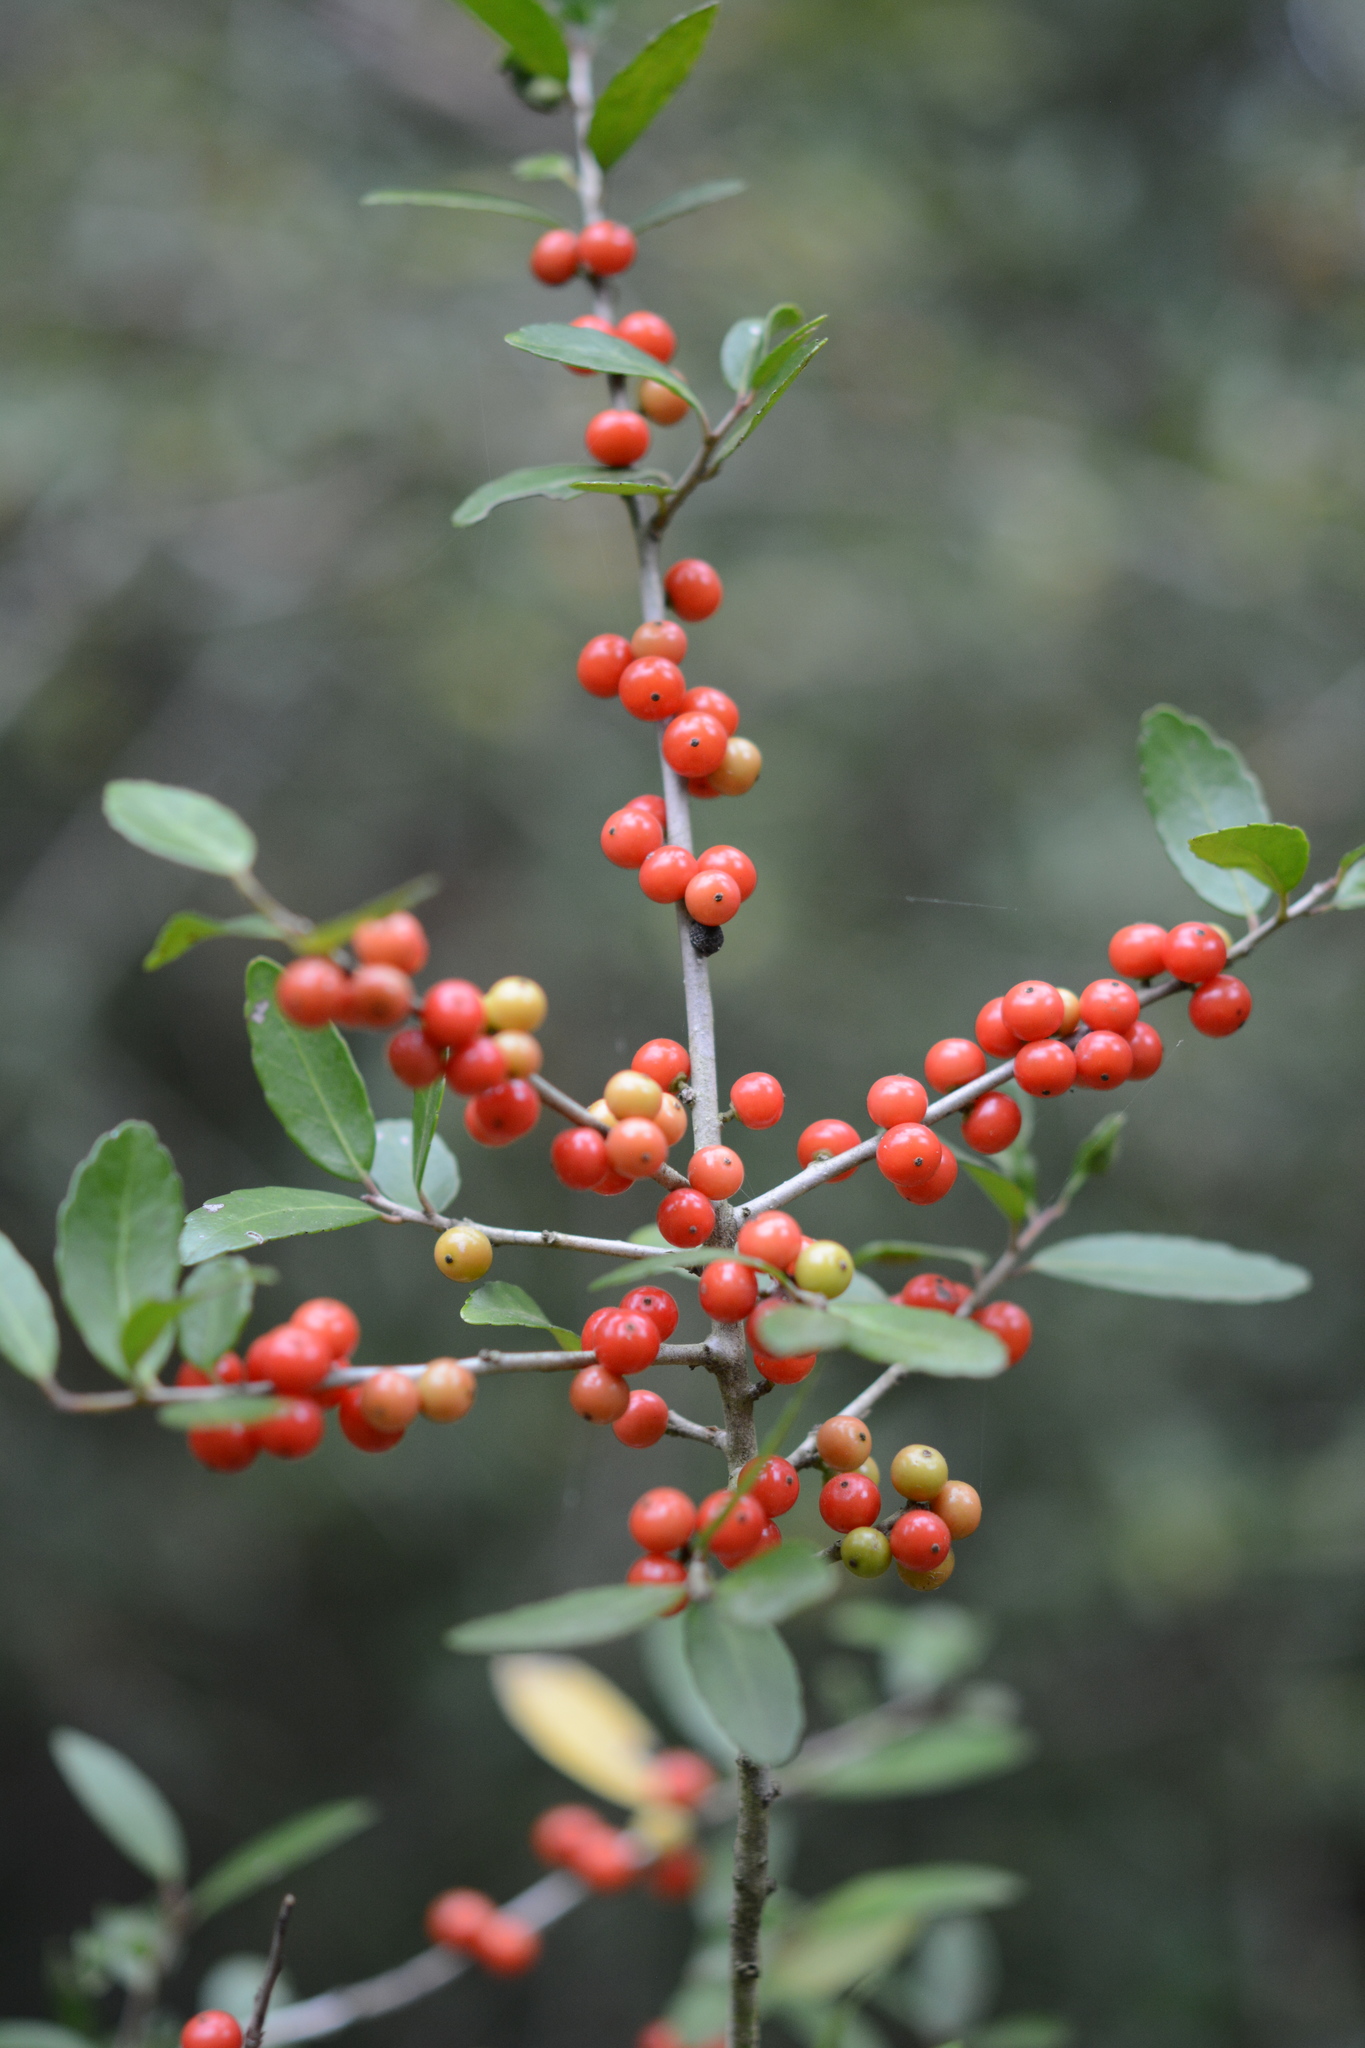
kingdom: Plantae
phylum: Tracheophyta
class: Magnoliopsida
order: Aquifoliales
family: Aquifoliaceae
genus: Ilex
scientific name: Ilex vomitoria
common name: Yaupon holly
